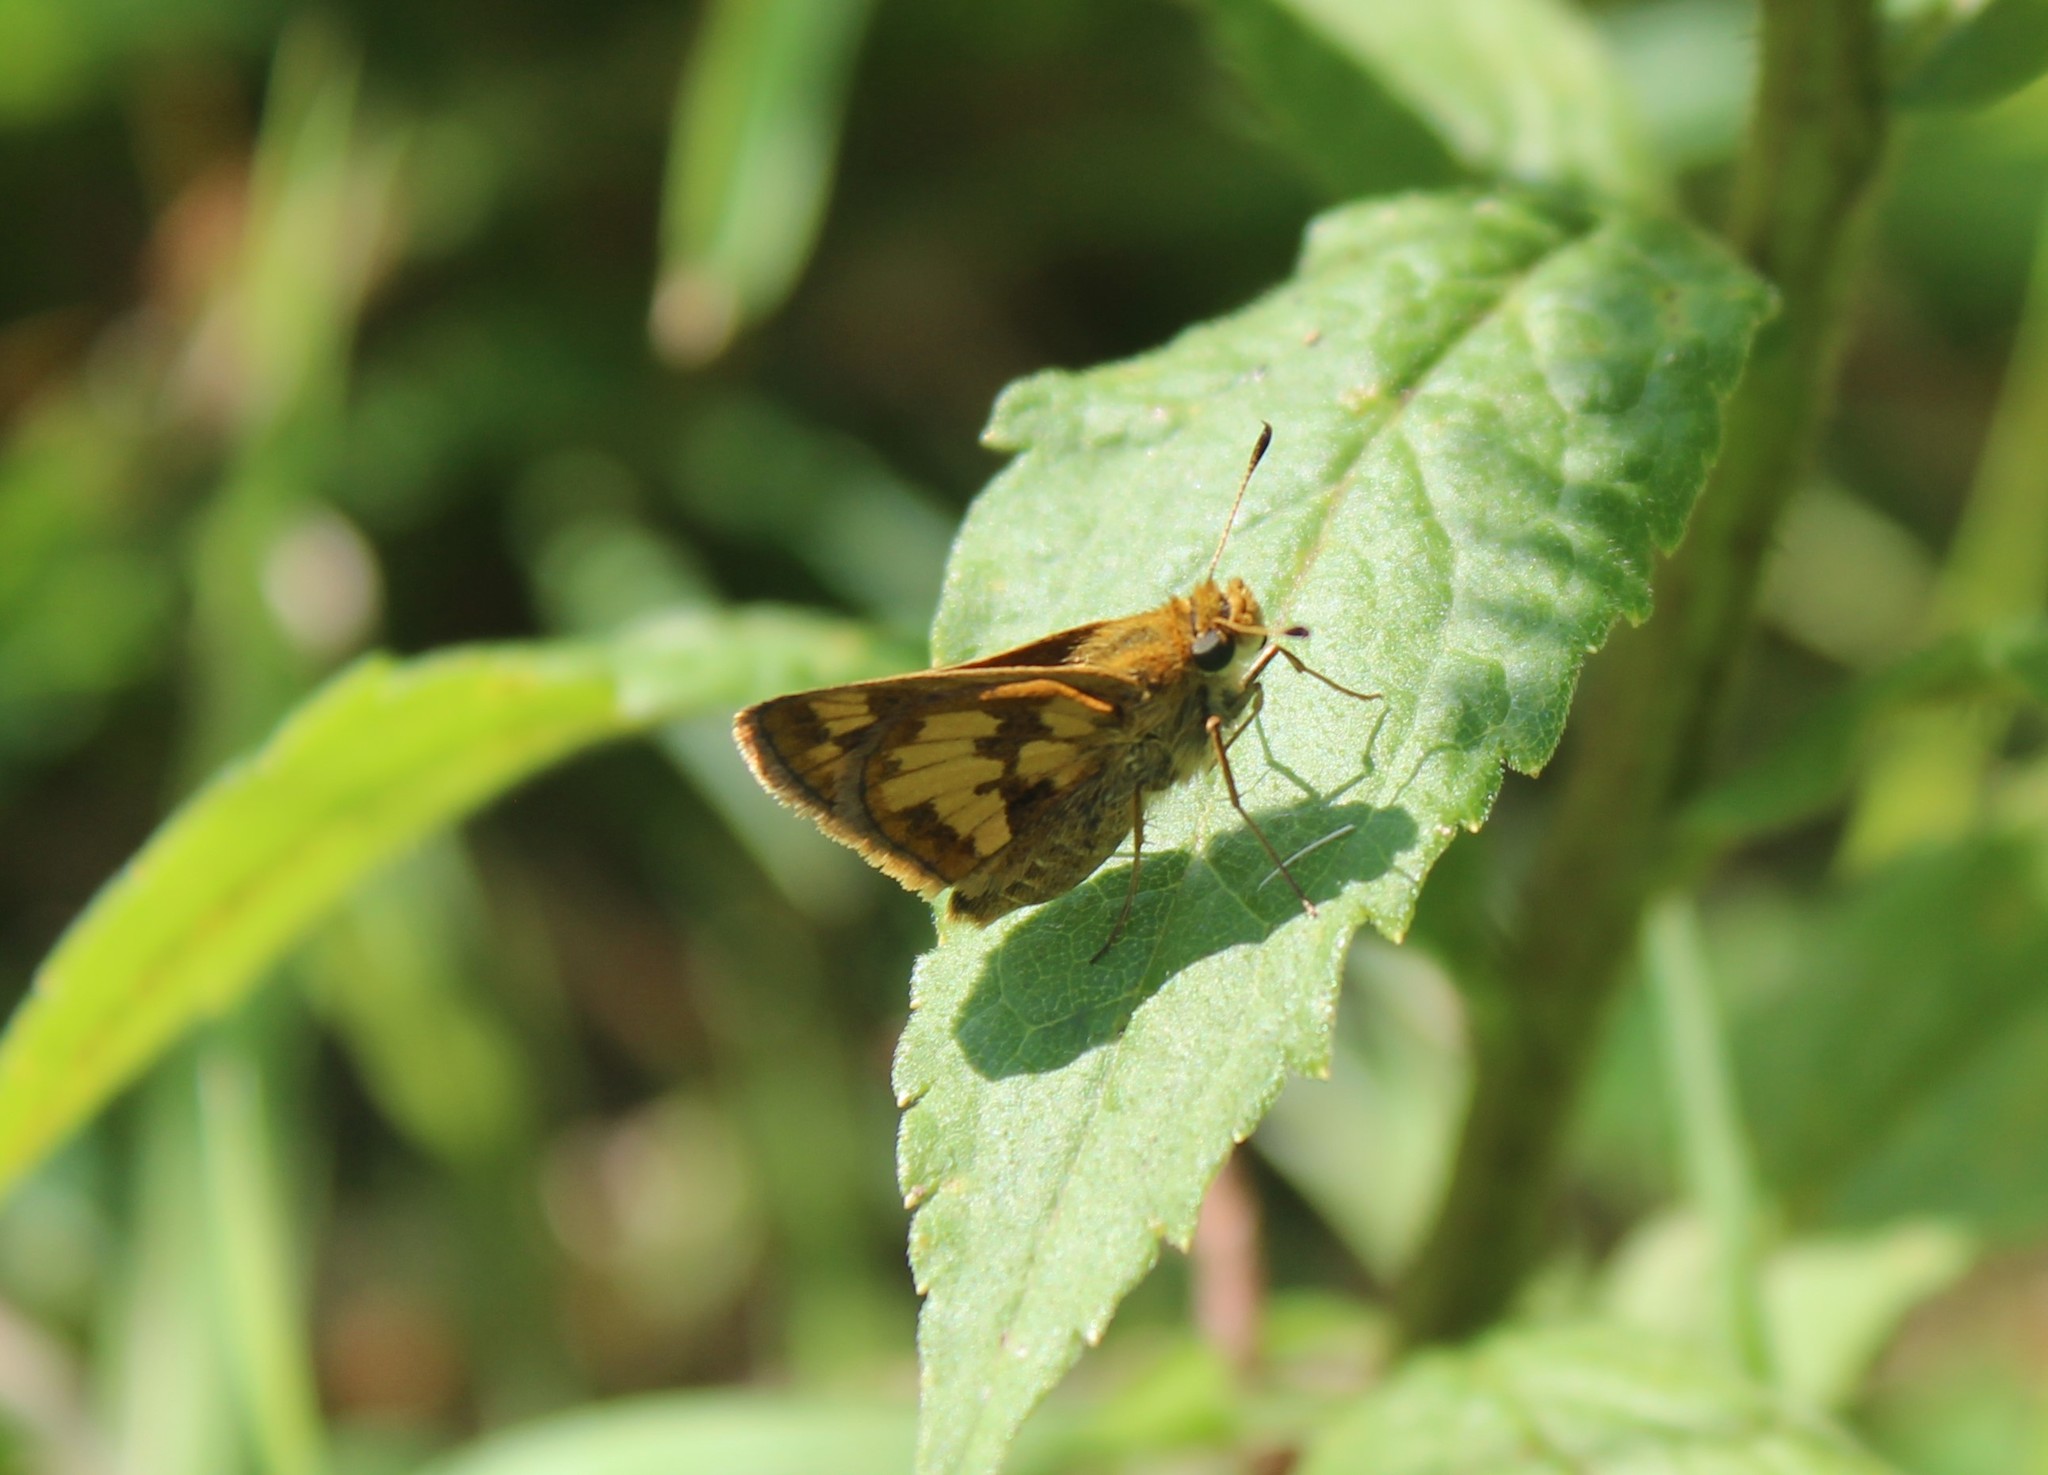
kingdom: Animalia
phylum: Arthropoda
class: Insecta
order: Lepidoptera
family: Hesperiidae
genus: Polites
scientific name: Polites coras
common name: Peck's skipper
